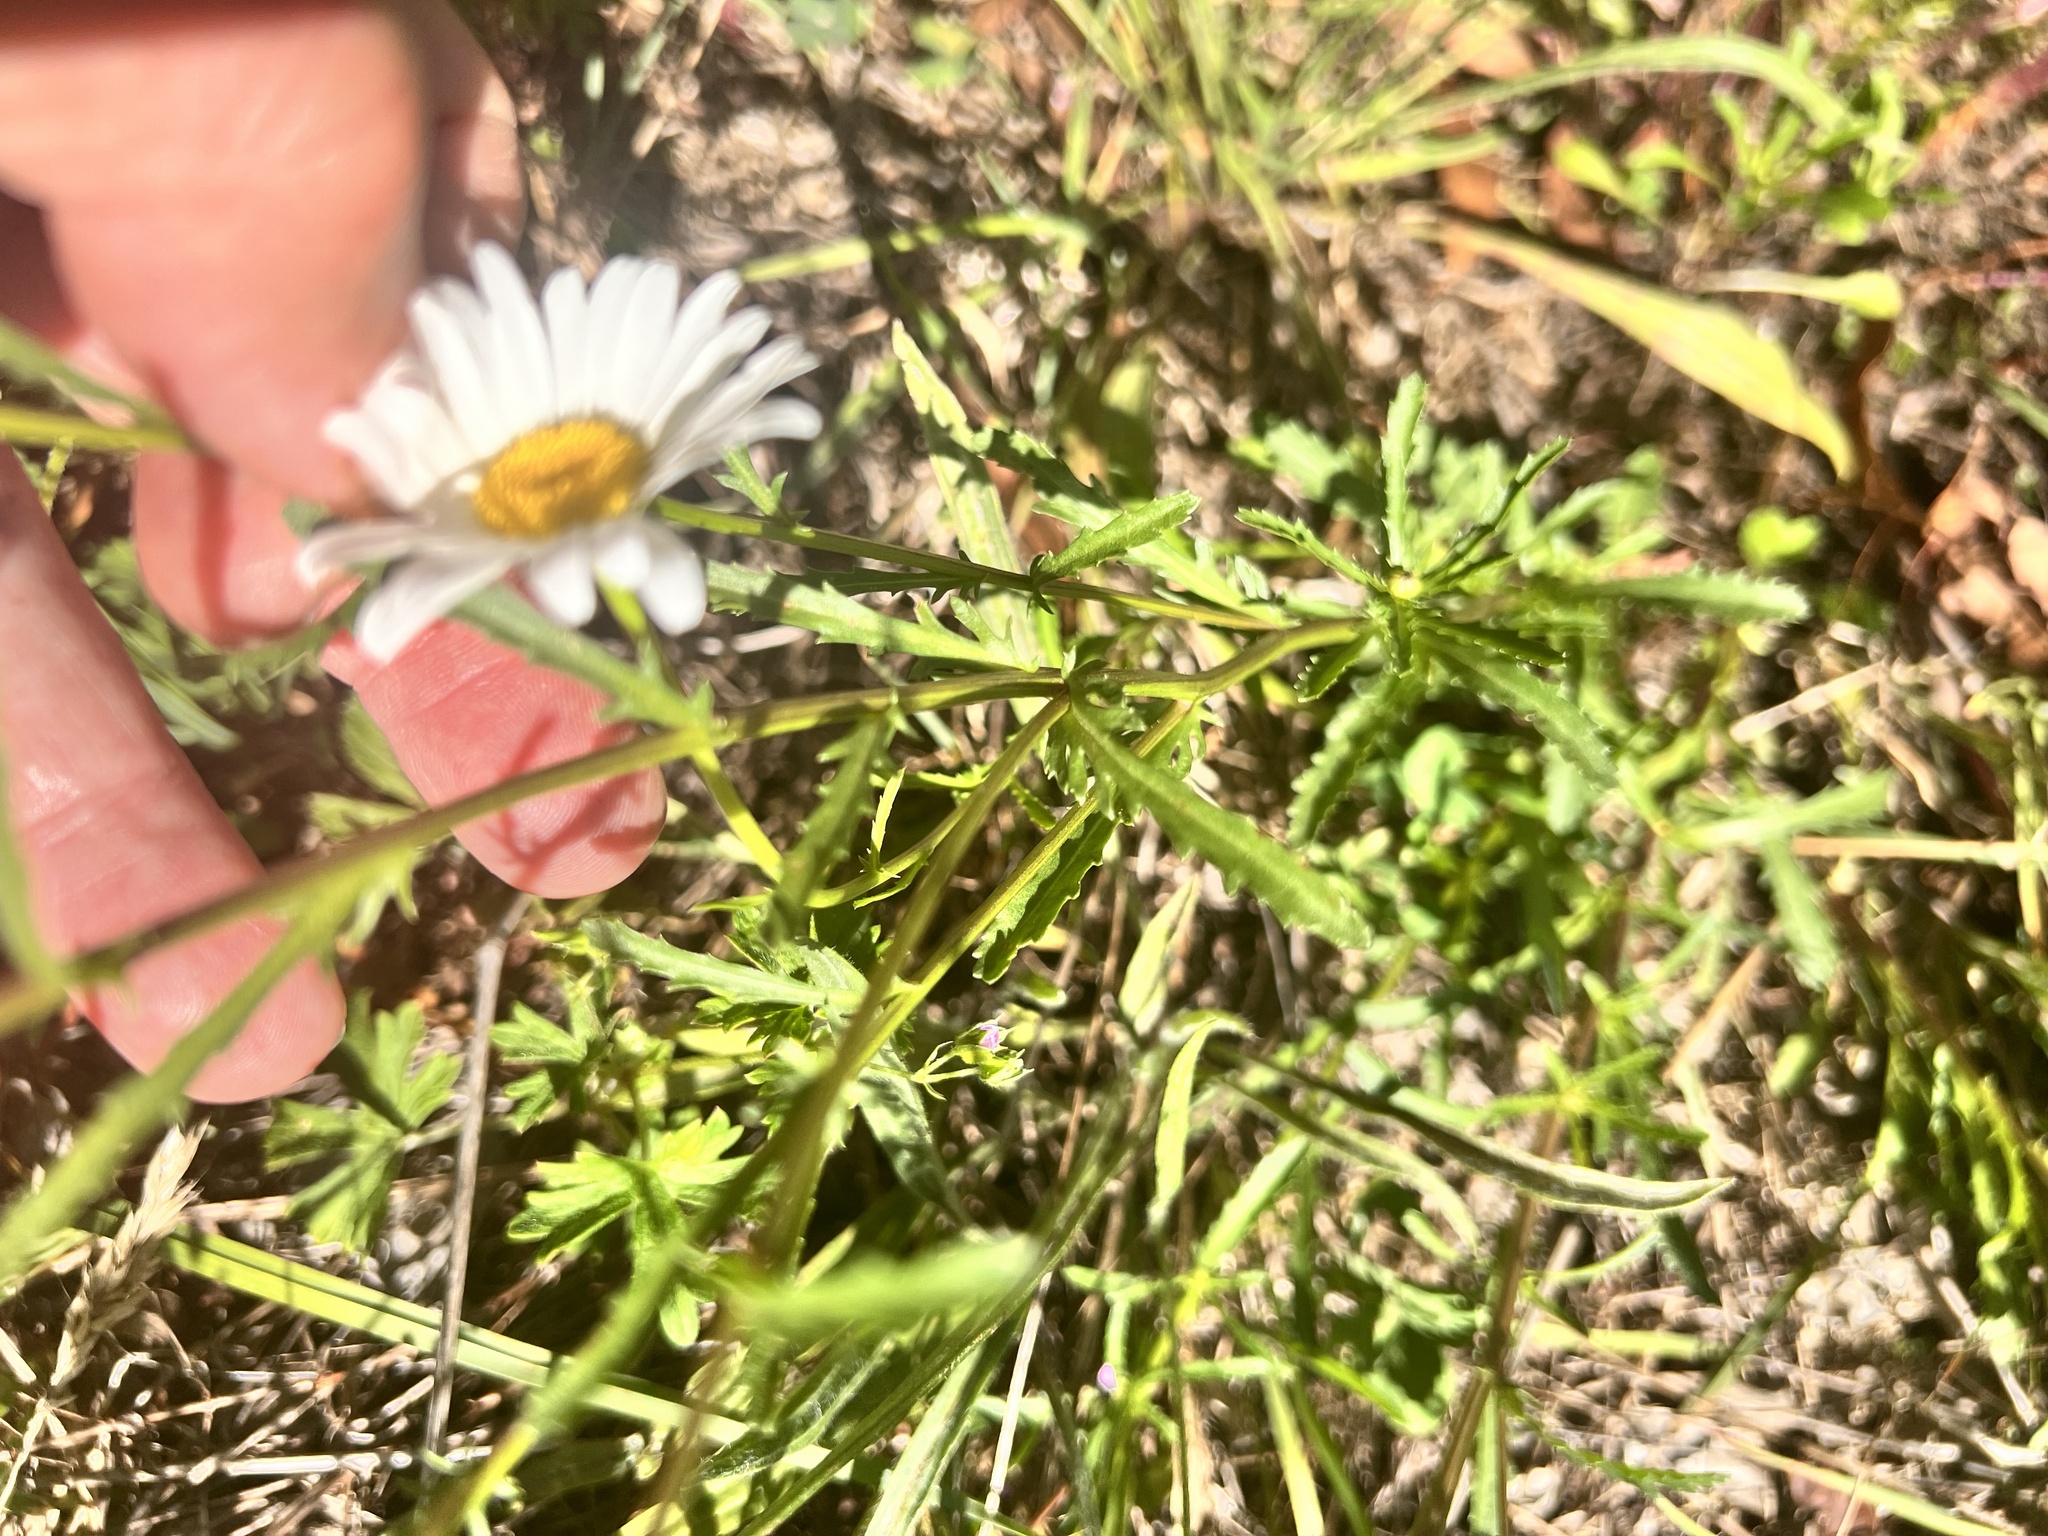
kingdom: Plantae
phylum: Tracheophyta
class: Magnoliopsida
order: Asterales
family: Asteraceae
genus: Leucanthemum
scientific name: Leucanthemum vulgare
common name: Oxeye daisy
